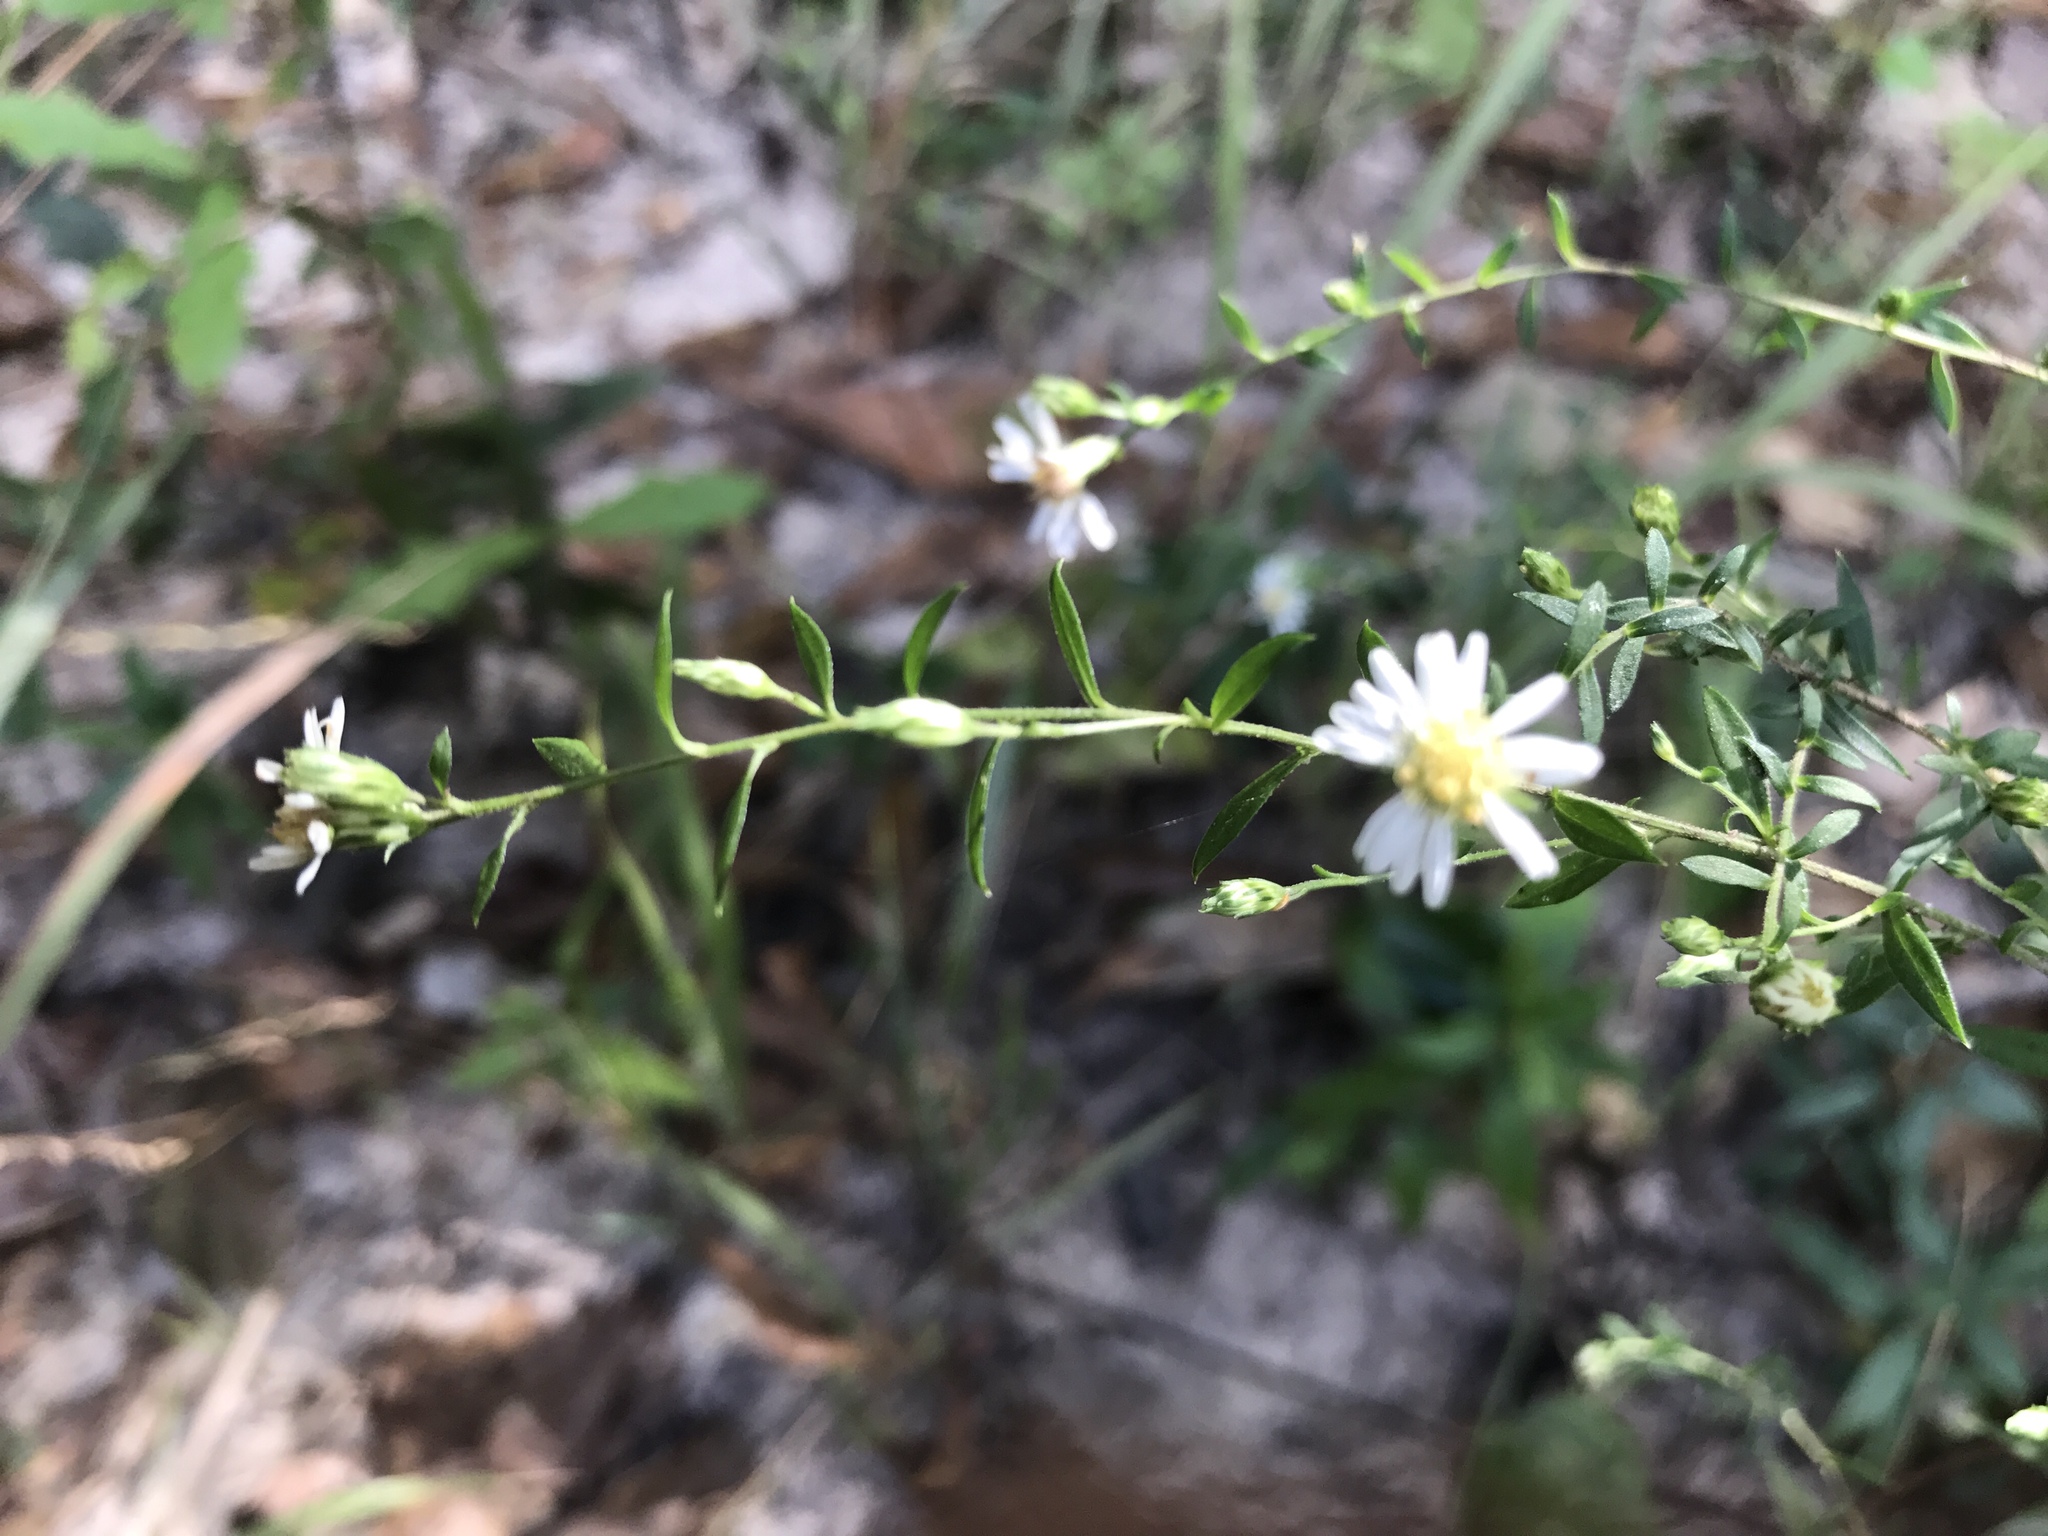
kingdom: Plantae
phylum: Tracheophyta
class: Magnoliopsida
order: Asterales
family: Asteraceae
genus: Symphyotrichum
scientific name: Symphyotrichum lateriflorum
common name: Calico aster
